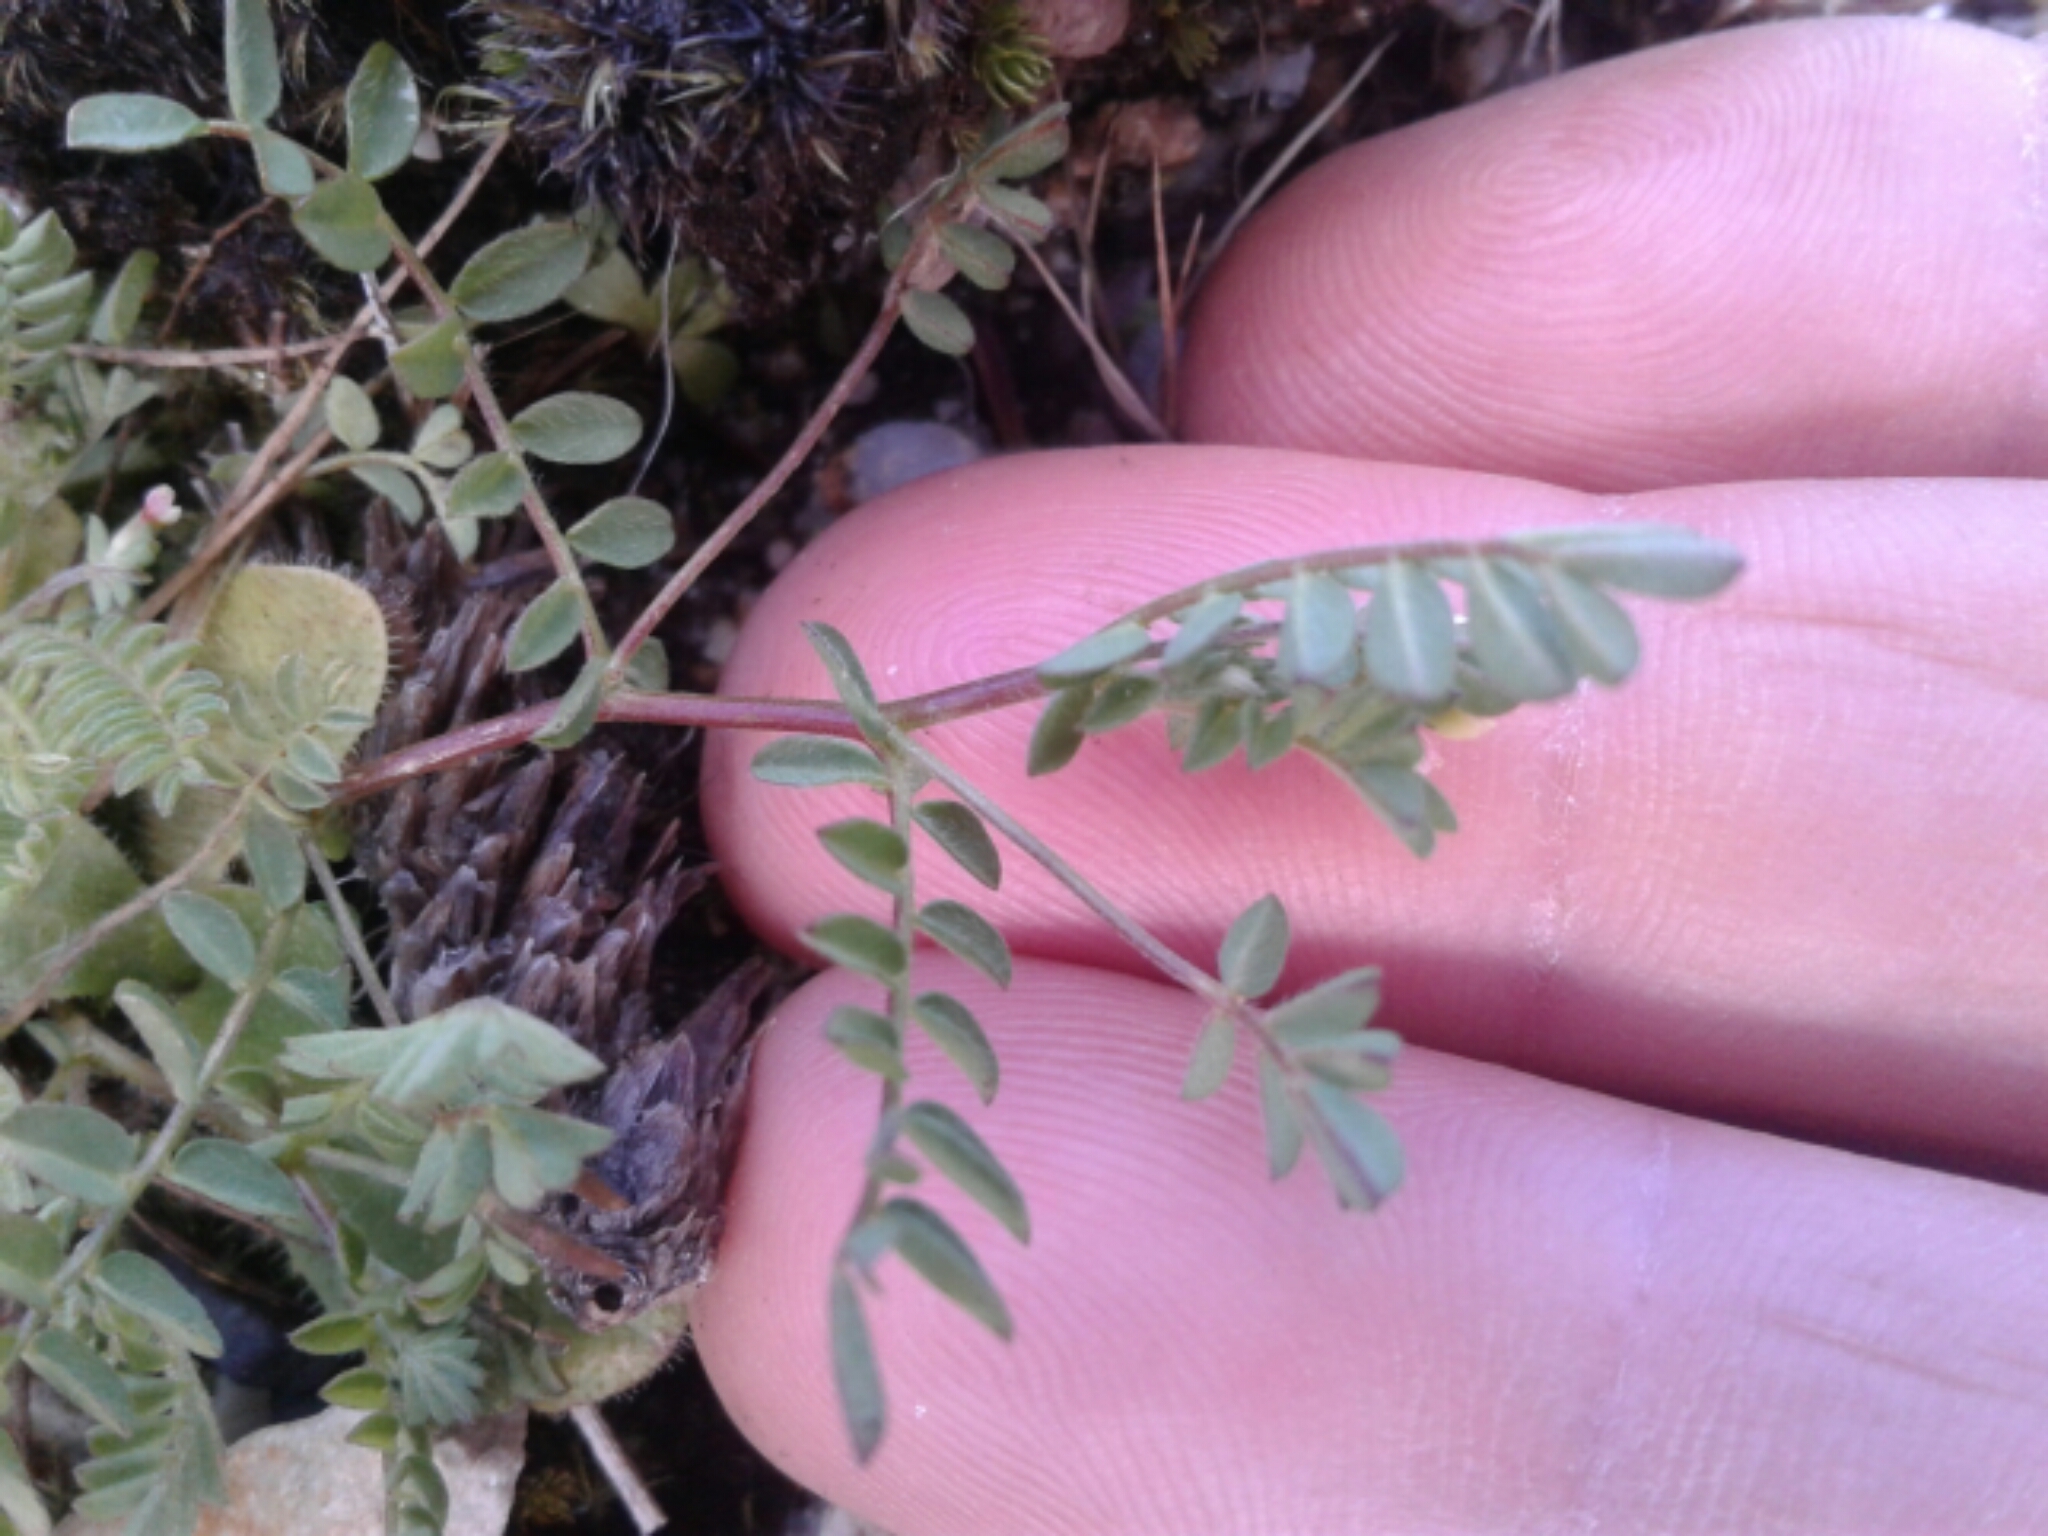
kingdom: Plantae
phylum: Tracheophyta
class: Magnoliopsida
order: Fabales
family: Fabaceae
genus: Ornithopus
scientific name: Ornithopus perpusillus
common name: Bird's-foot
